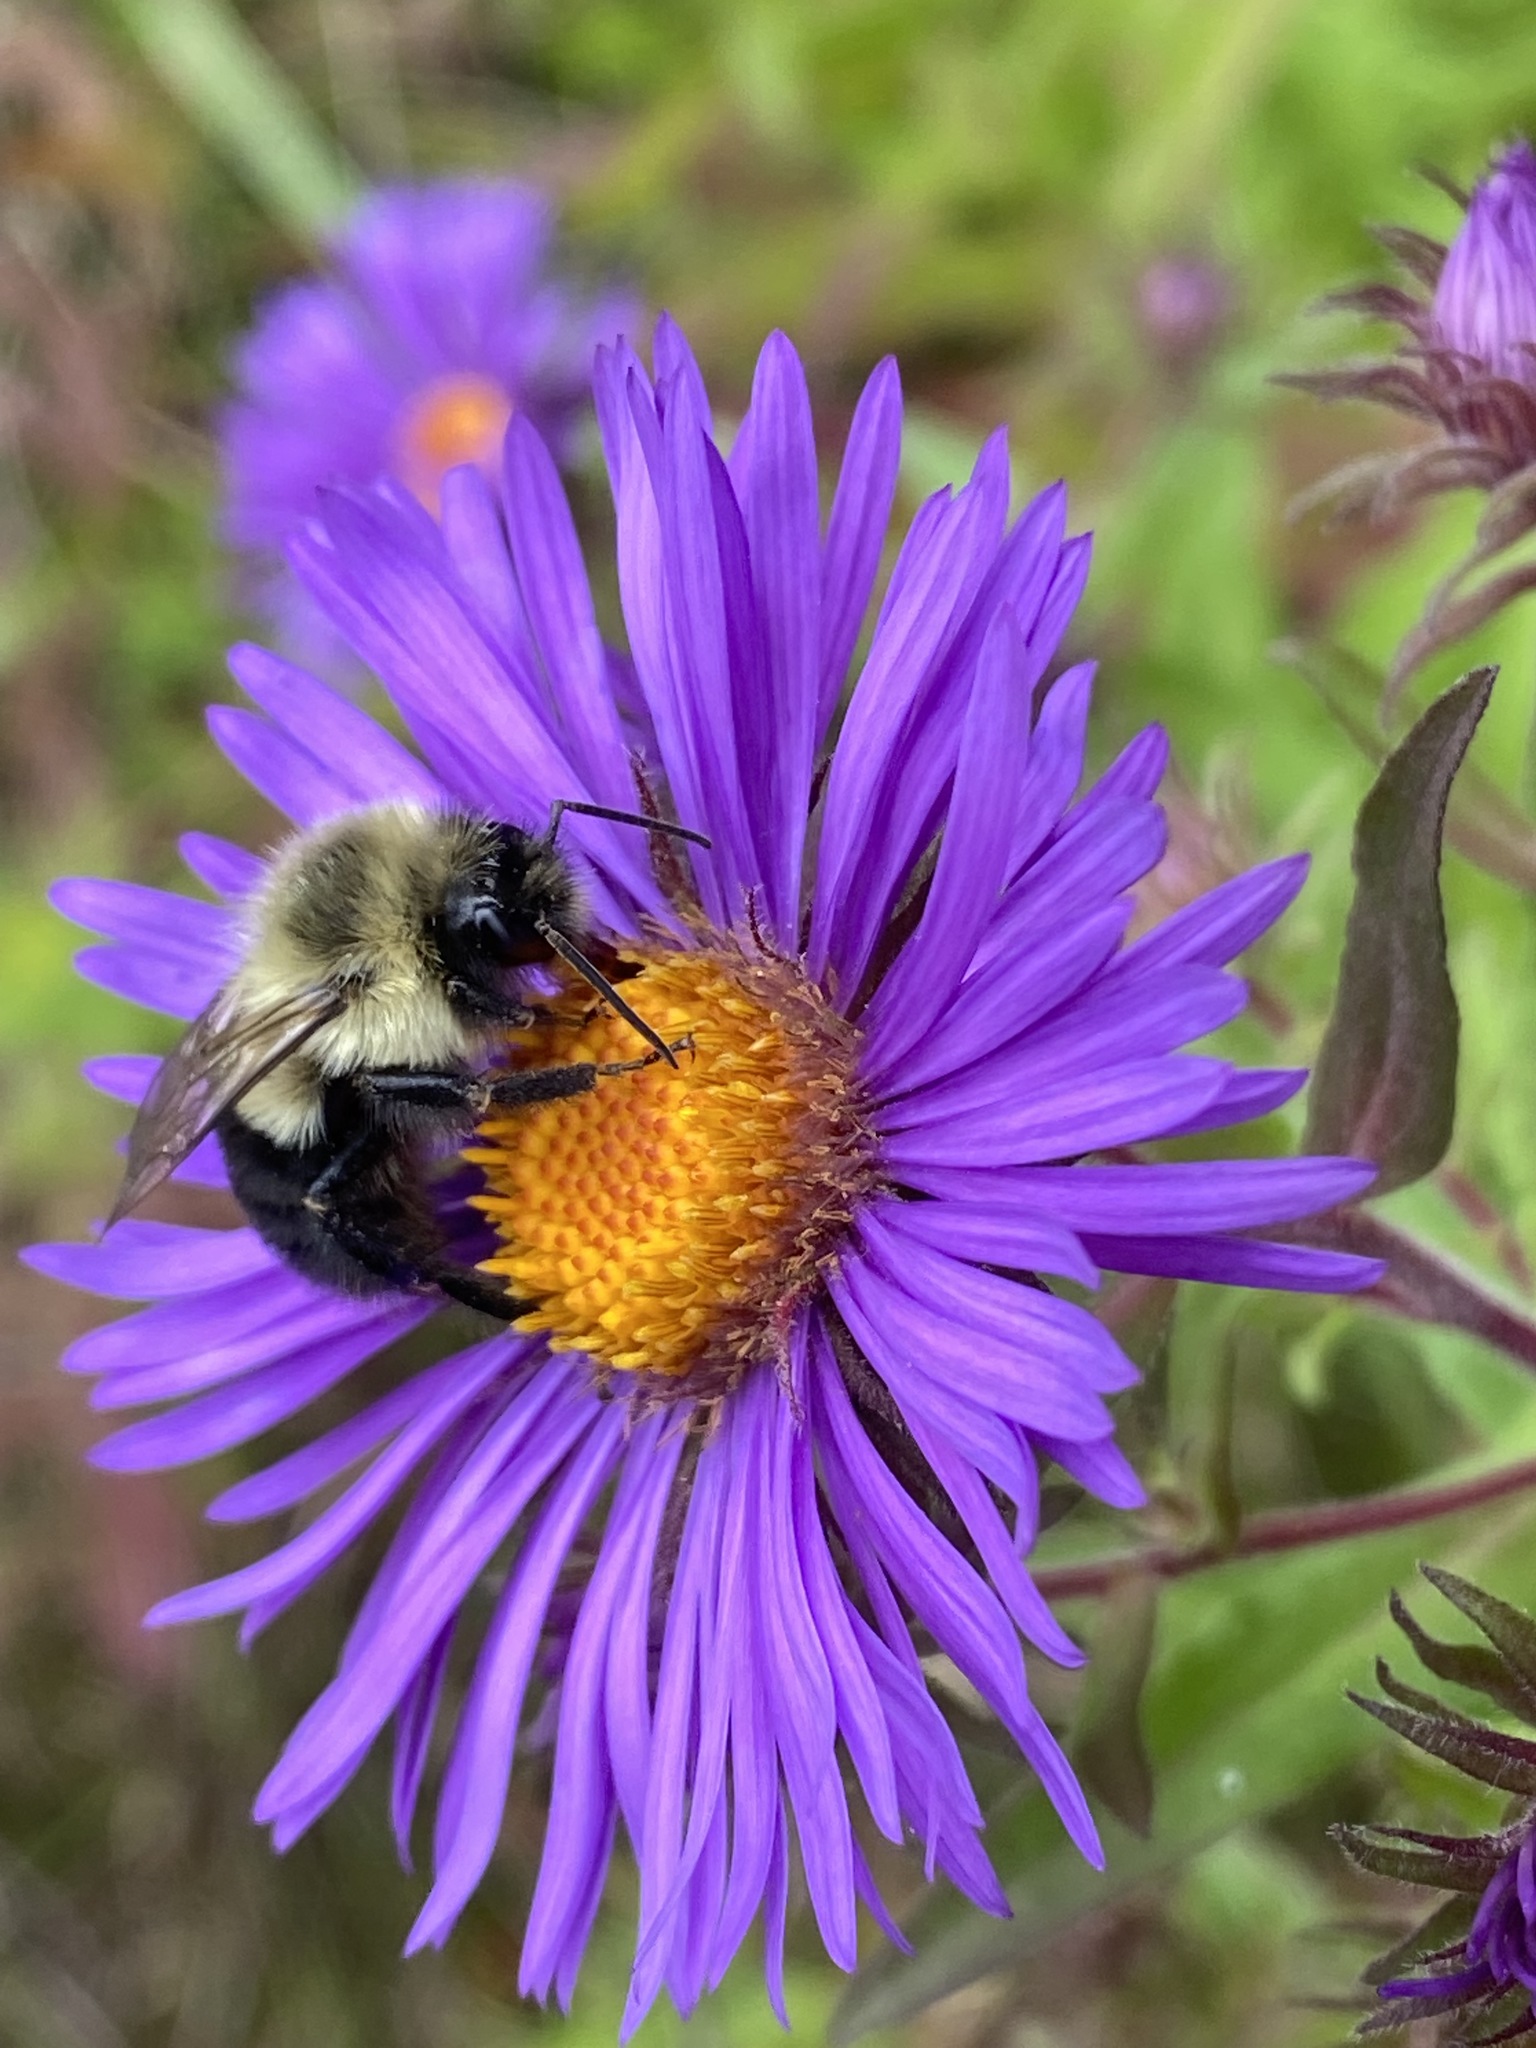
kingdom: Animalia
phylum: Arthropoda
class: Insecta
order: Hymenoptera
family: Apidae
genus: Bombus
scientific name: Bombus impatiens
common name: Common eastern bumble bee
